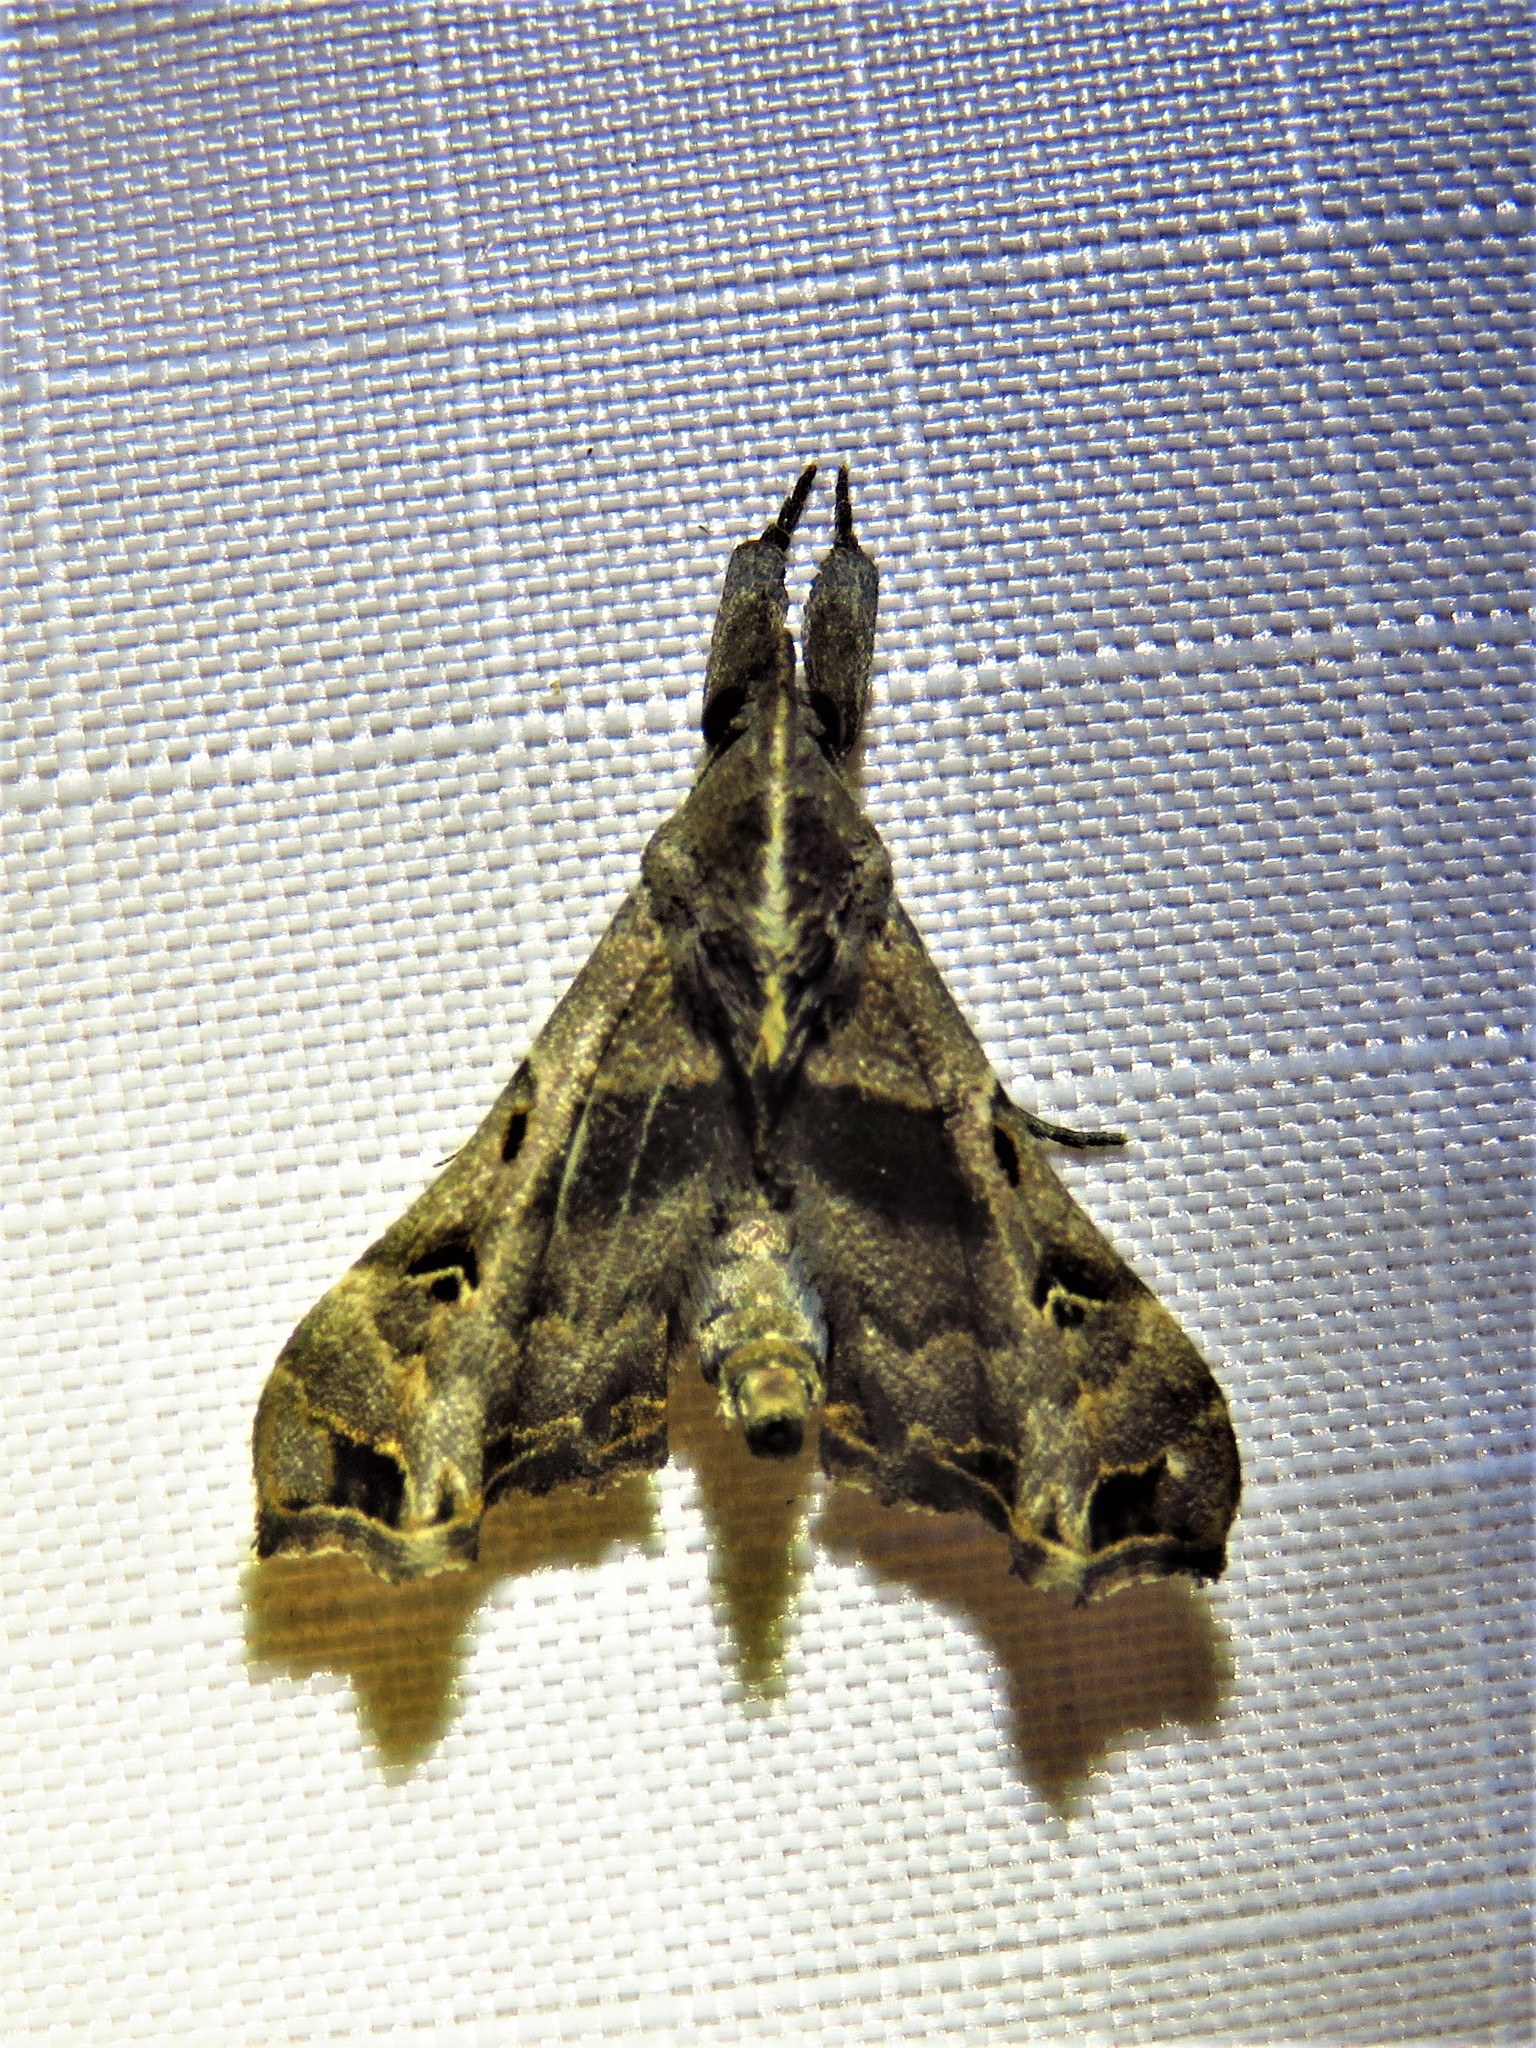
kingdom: Animalia
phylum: Arthropoda
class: Insecta
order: Lepidoptera
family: Erebidae
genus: Palthis
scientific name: Palthis asopialis
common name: Faint-spotted palthis moth
